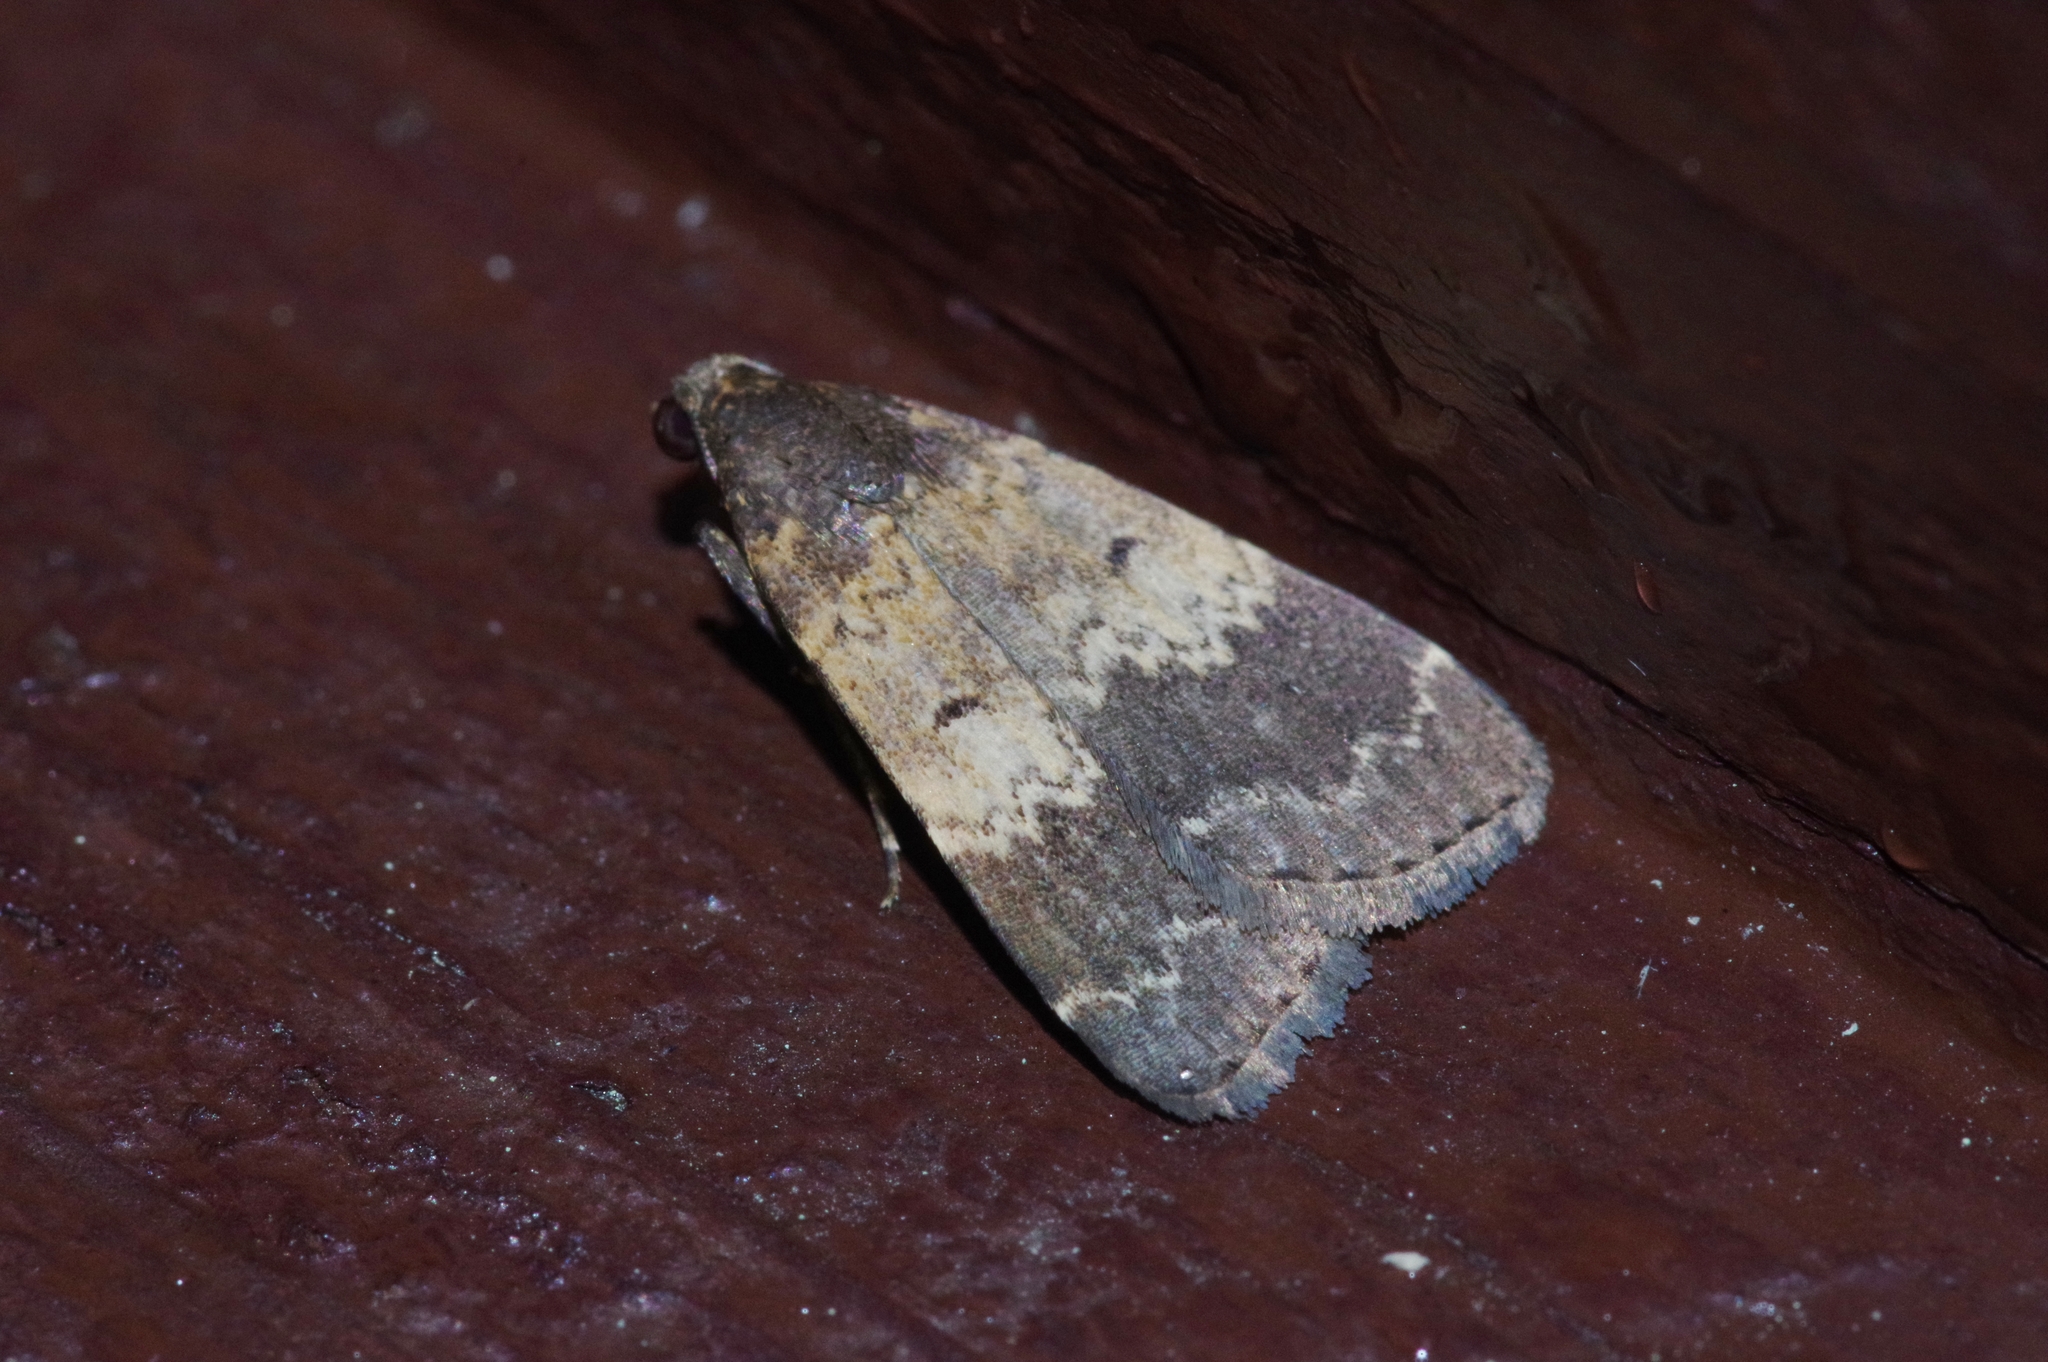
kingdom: Animalia
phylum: Arthropoda
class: Insecta
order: Lepidoptera
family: Erebidae
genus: Hydrillodes
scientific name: Hydrillodes lentalis
